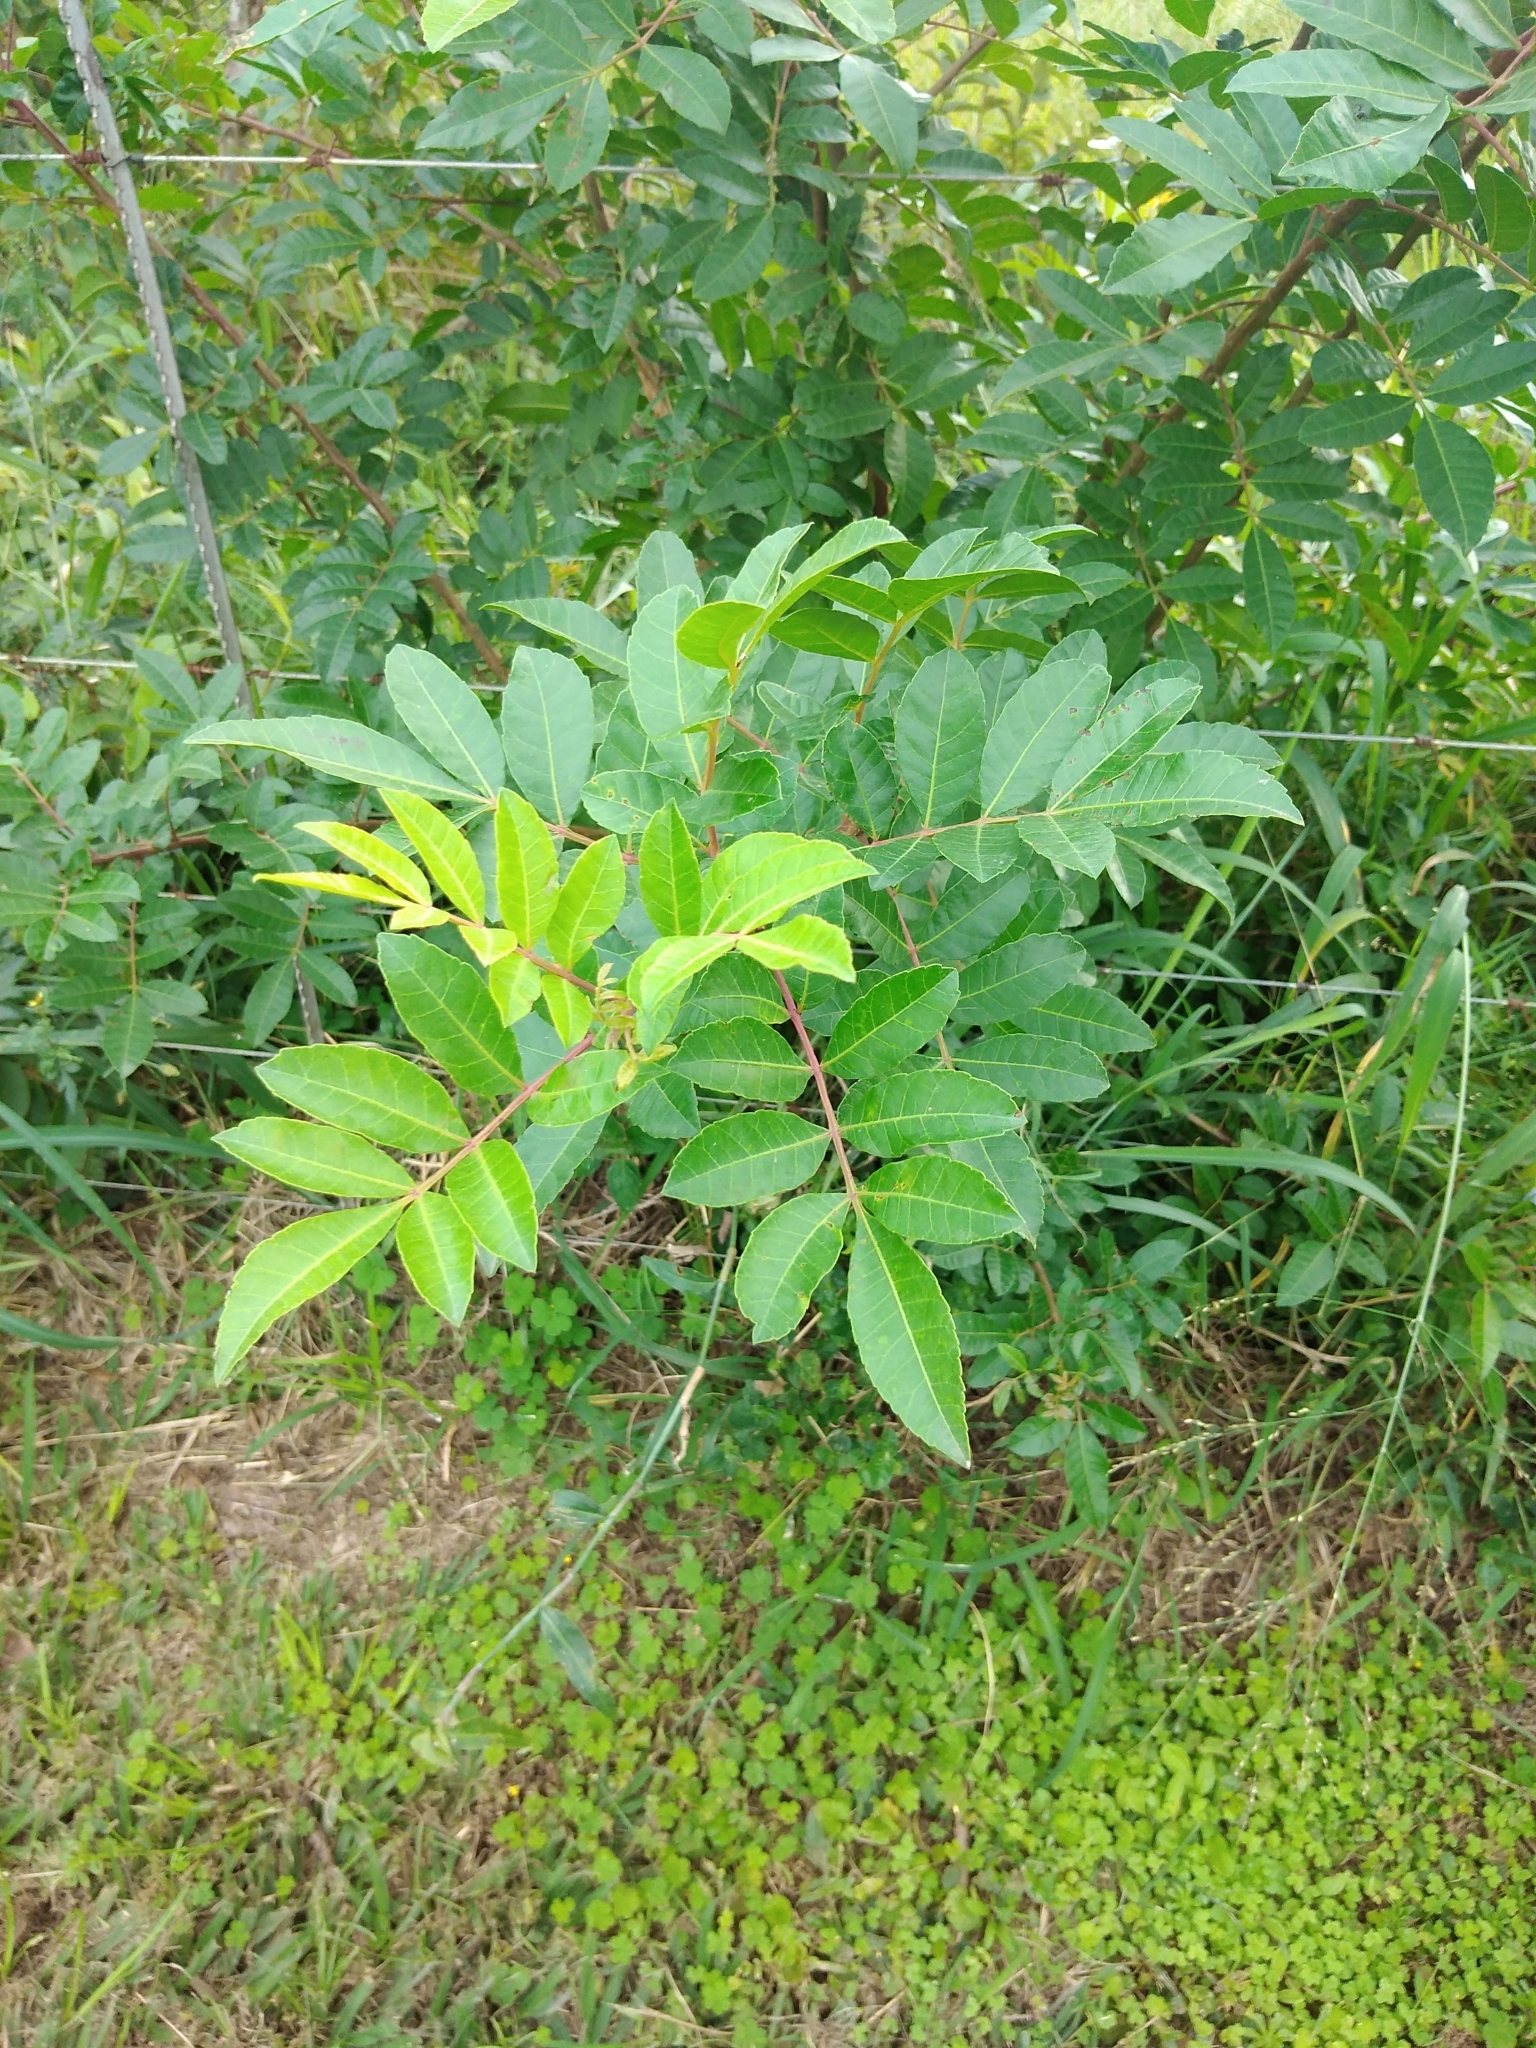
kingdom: Plantae
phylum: Tracheophyta
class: Magnoliopsida
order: Sapindales
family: Anacardiaceae
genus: Schinus
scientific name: Schinus terebinthifolia
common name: Brazilian peppertree
